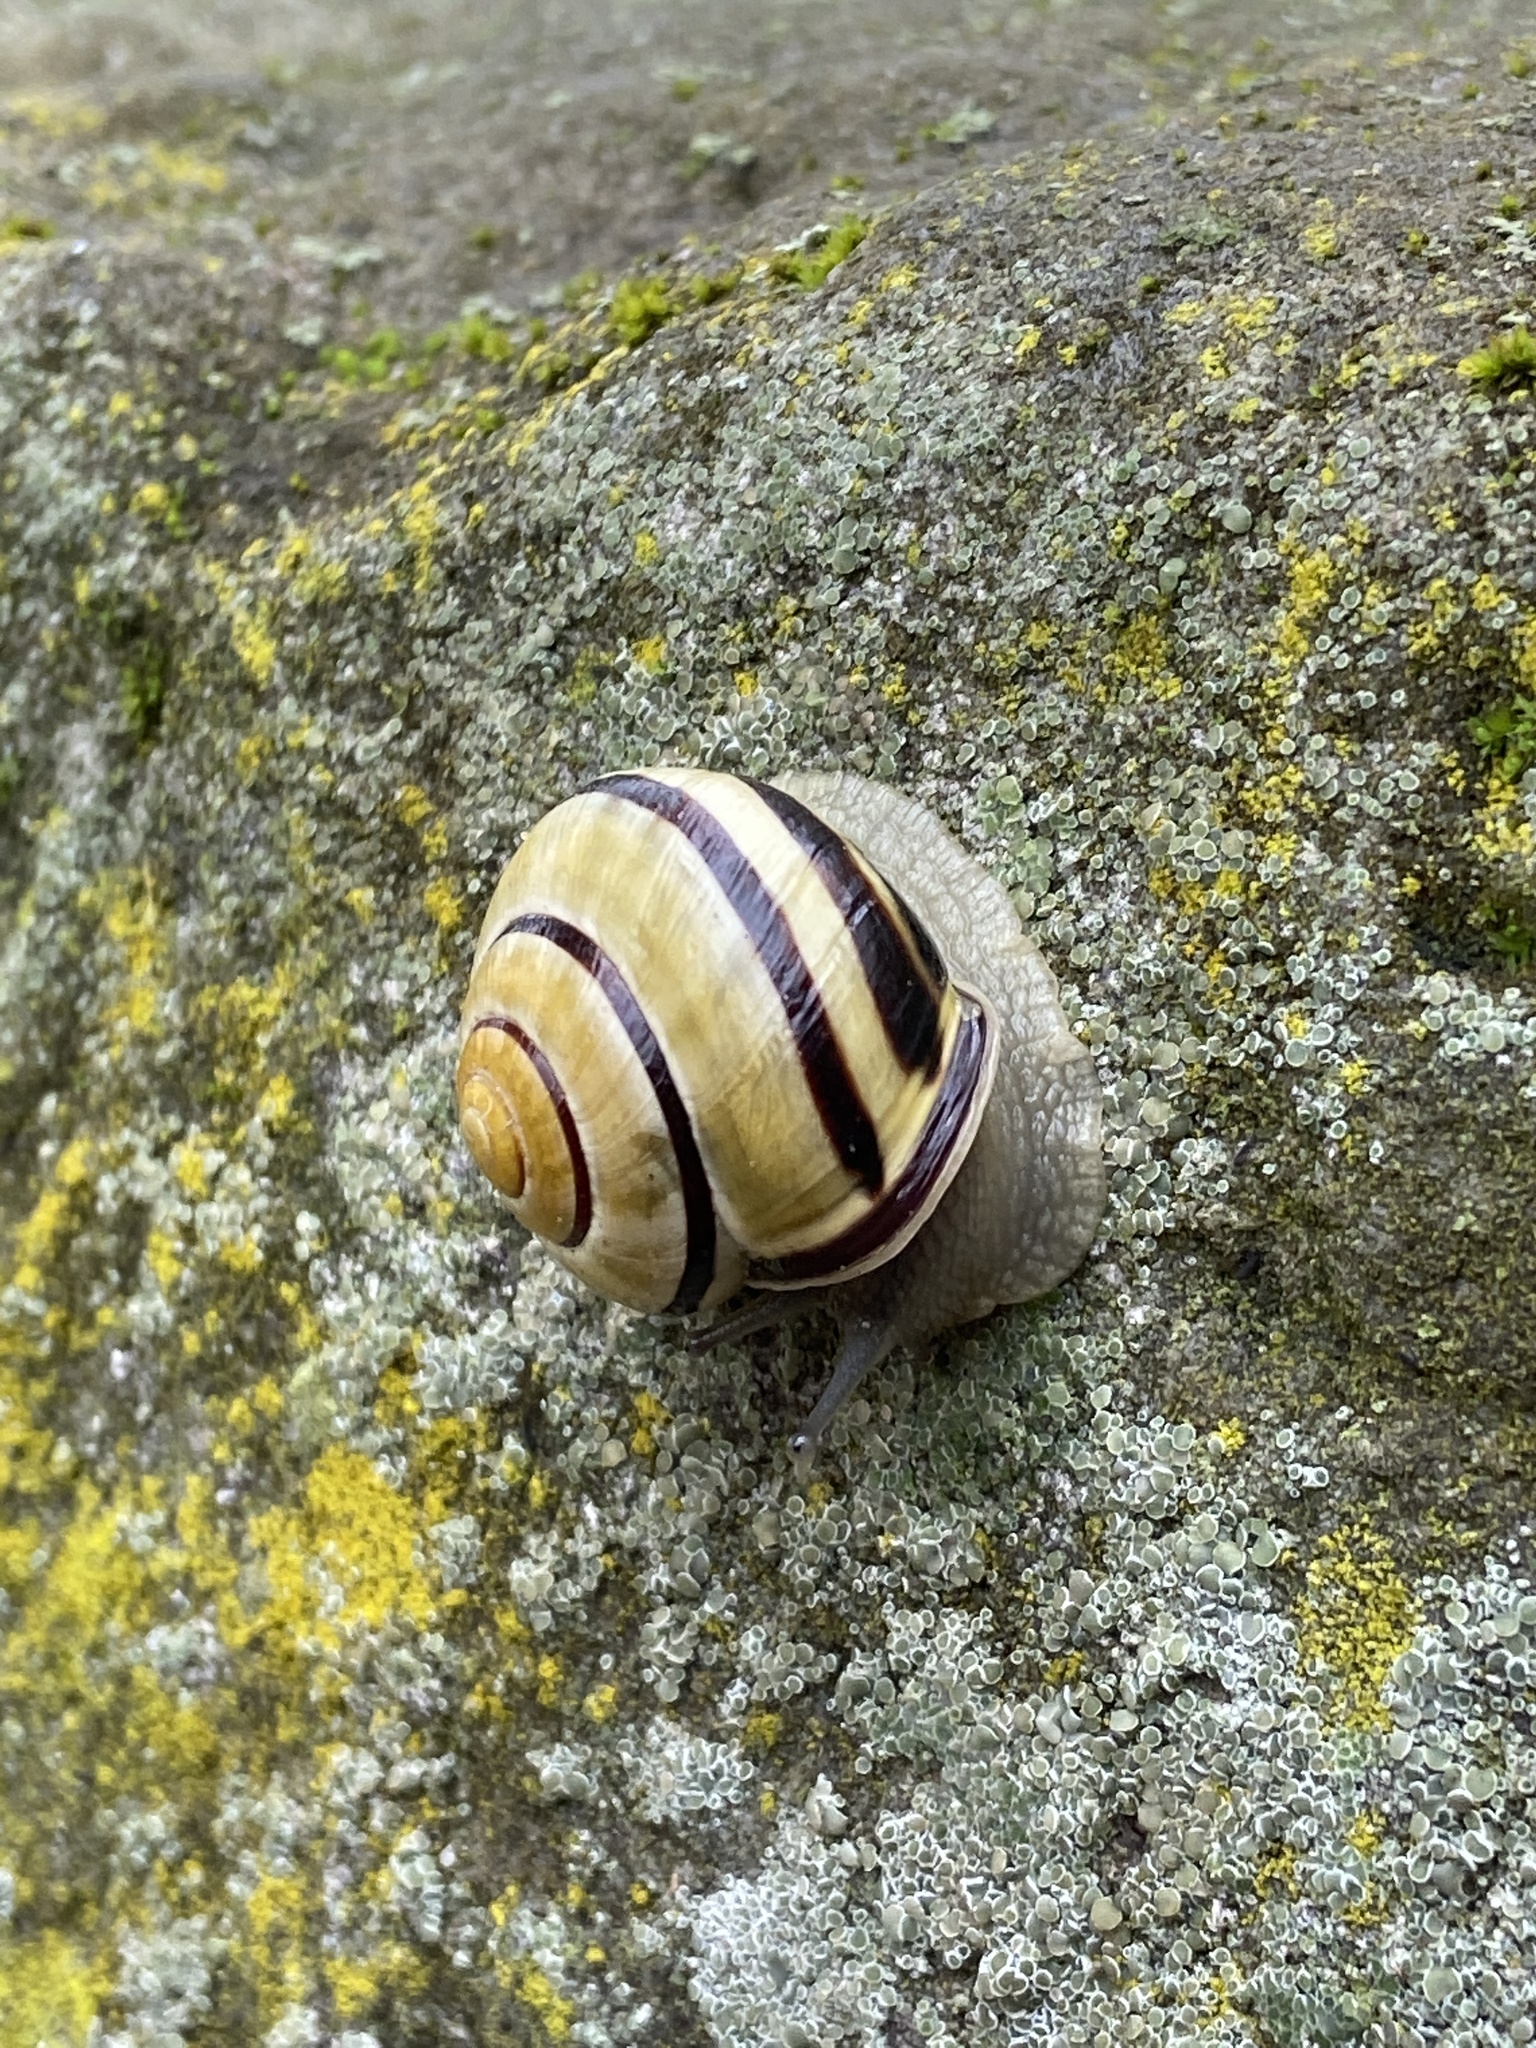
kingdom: Animalia
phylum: Mollusca
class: Gastropoda
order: Stylommatophora
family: Helicidae
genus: Cepaea
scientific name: Cepaea nemoralis
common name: Grovesnail
